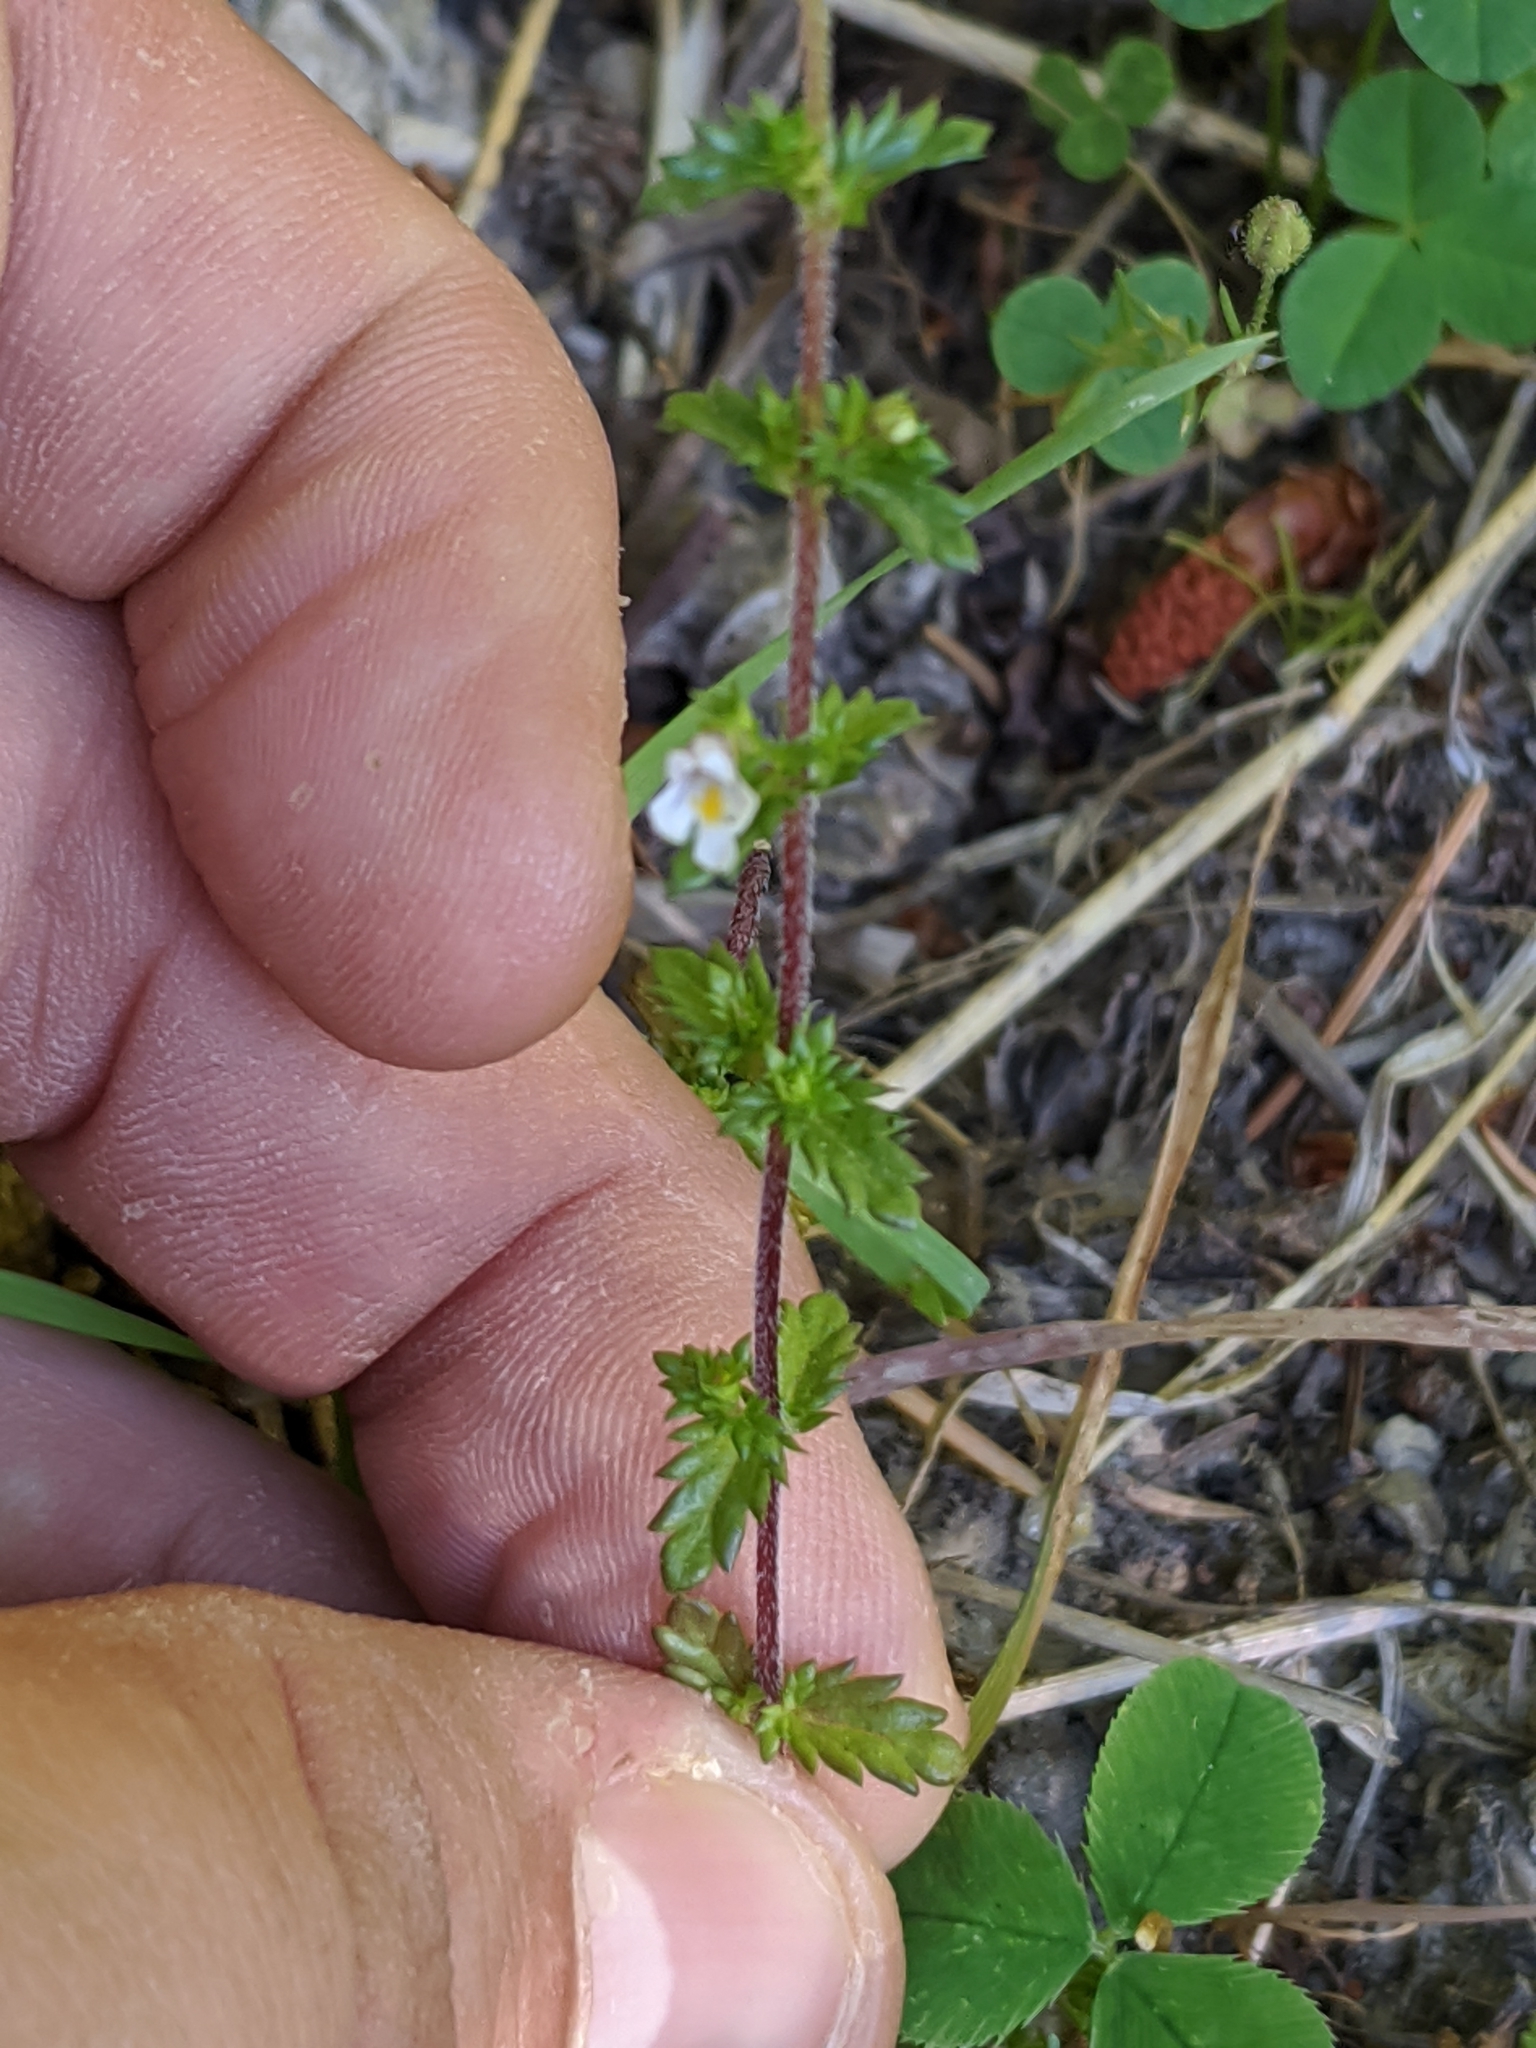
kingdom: Plantae
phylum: Tracheophyta
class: Magnoliopsida
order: Lamiales
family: Orobanchaceae
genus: Euphrasia
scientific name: Euphrasia nemorosa
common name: Common eyebright
